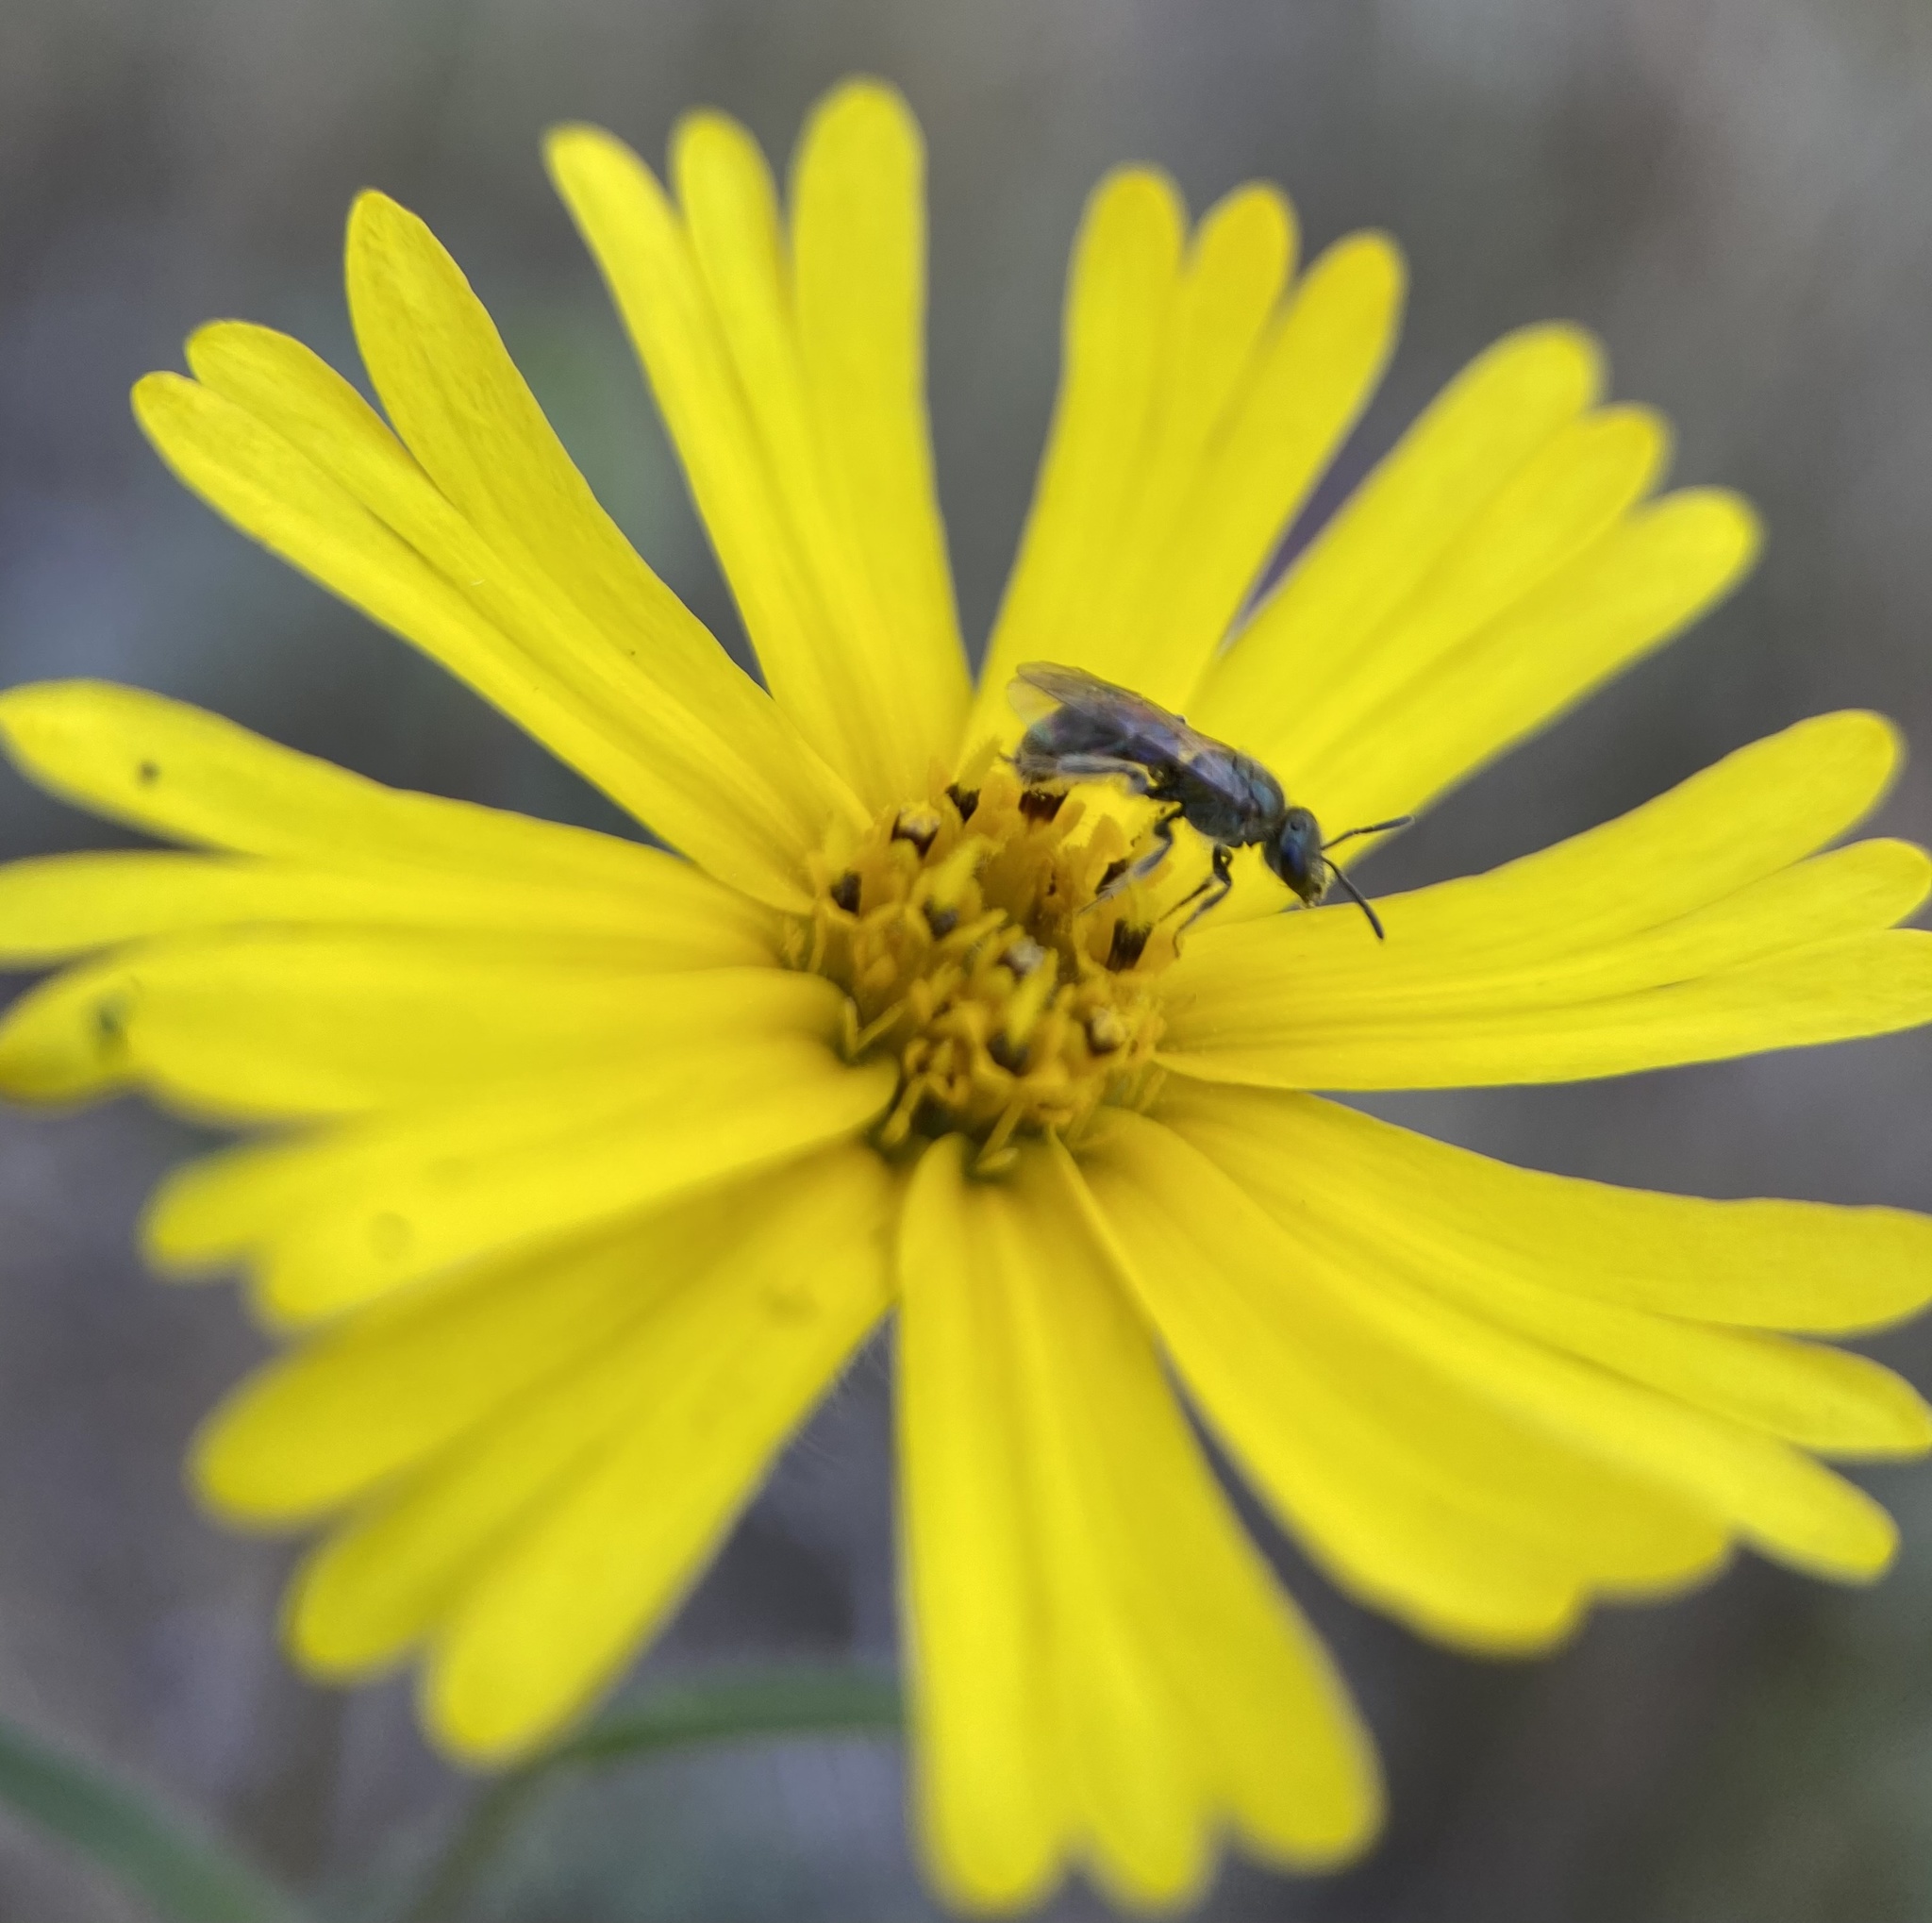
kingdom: Plantae
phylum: Tracheophyta
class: Magnoliopsida
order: Asterales
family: Asteraceae
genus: Madia
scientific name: Madia elegans
